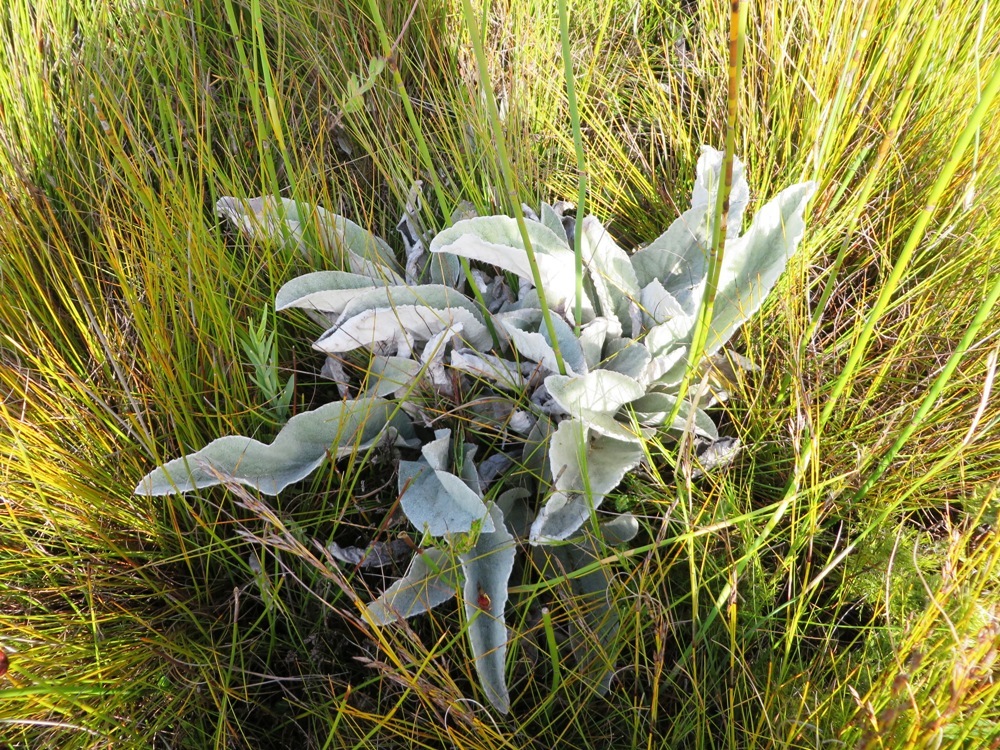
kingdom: Plantae
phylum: Tracheophyta
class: Magnoliopsida
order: Apiales
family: Apiaceae
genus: Hermas
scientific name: Hermas intermedia
